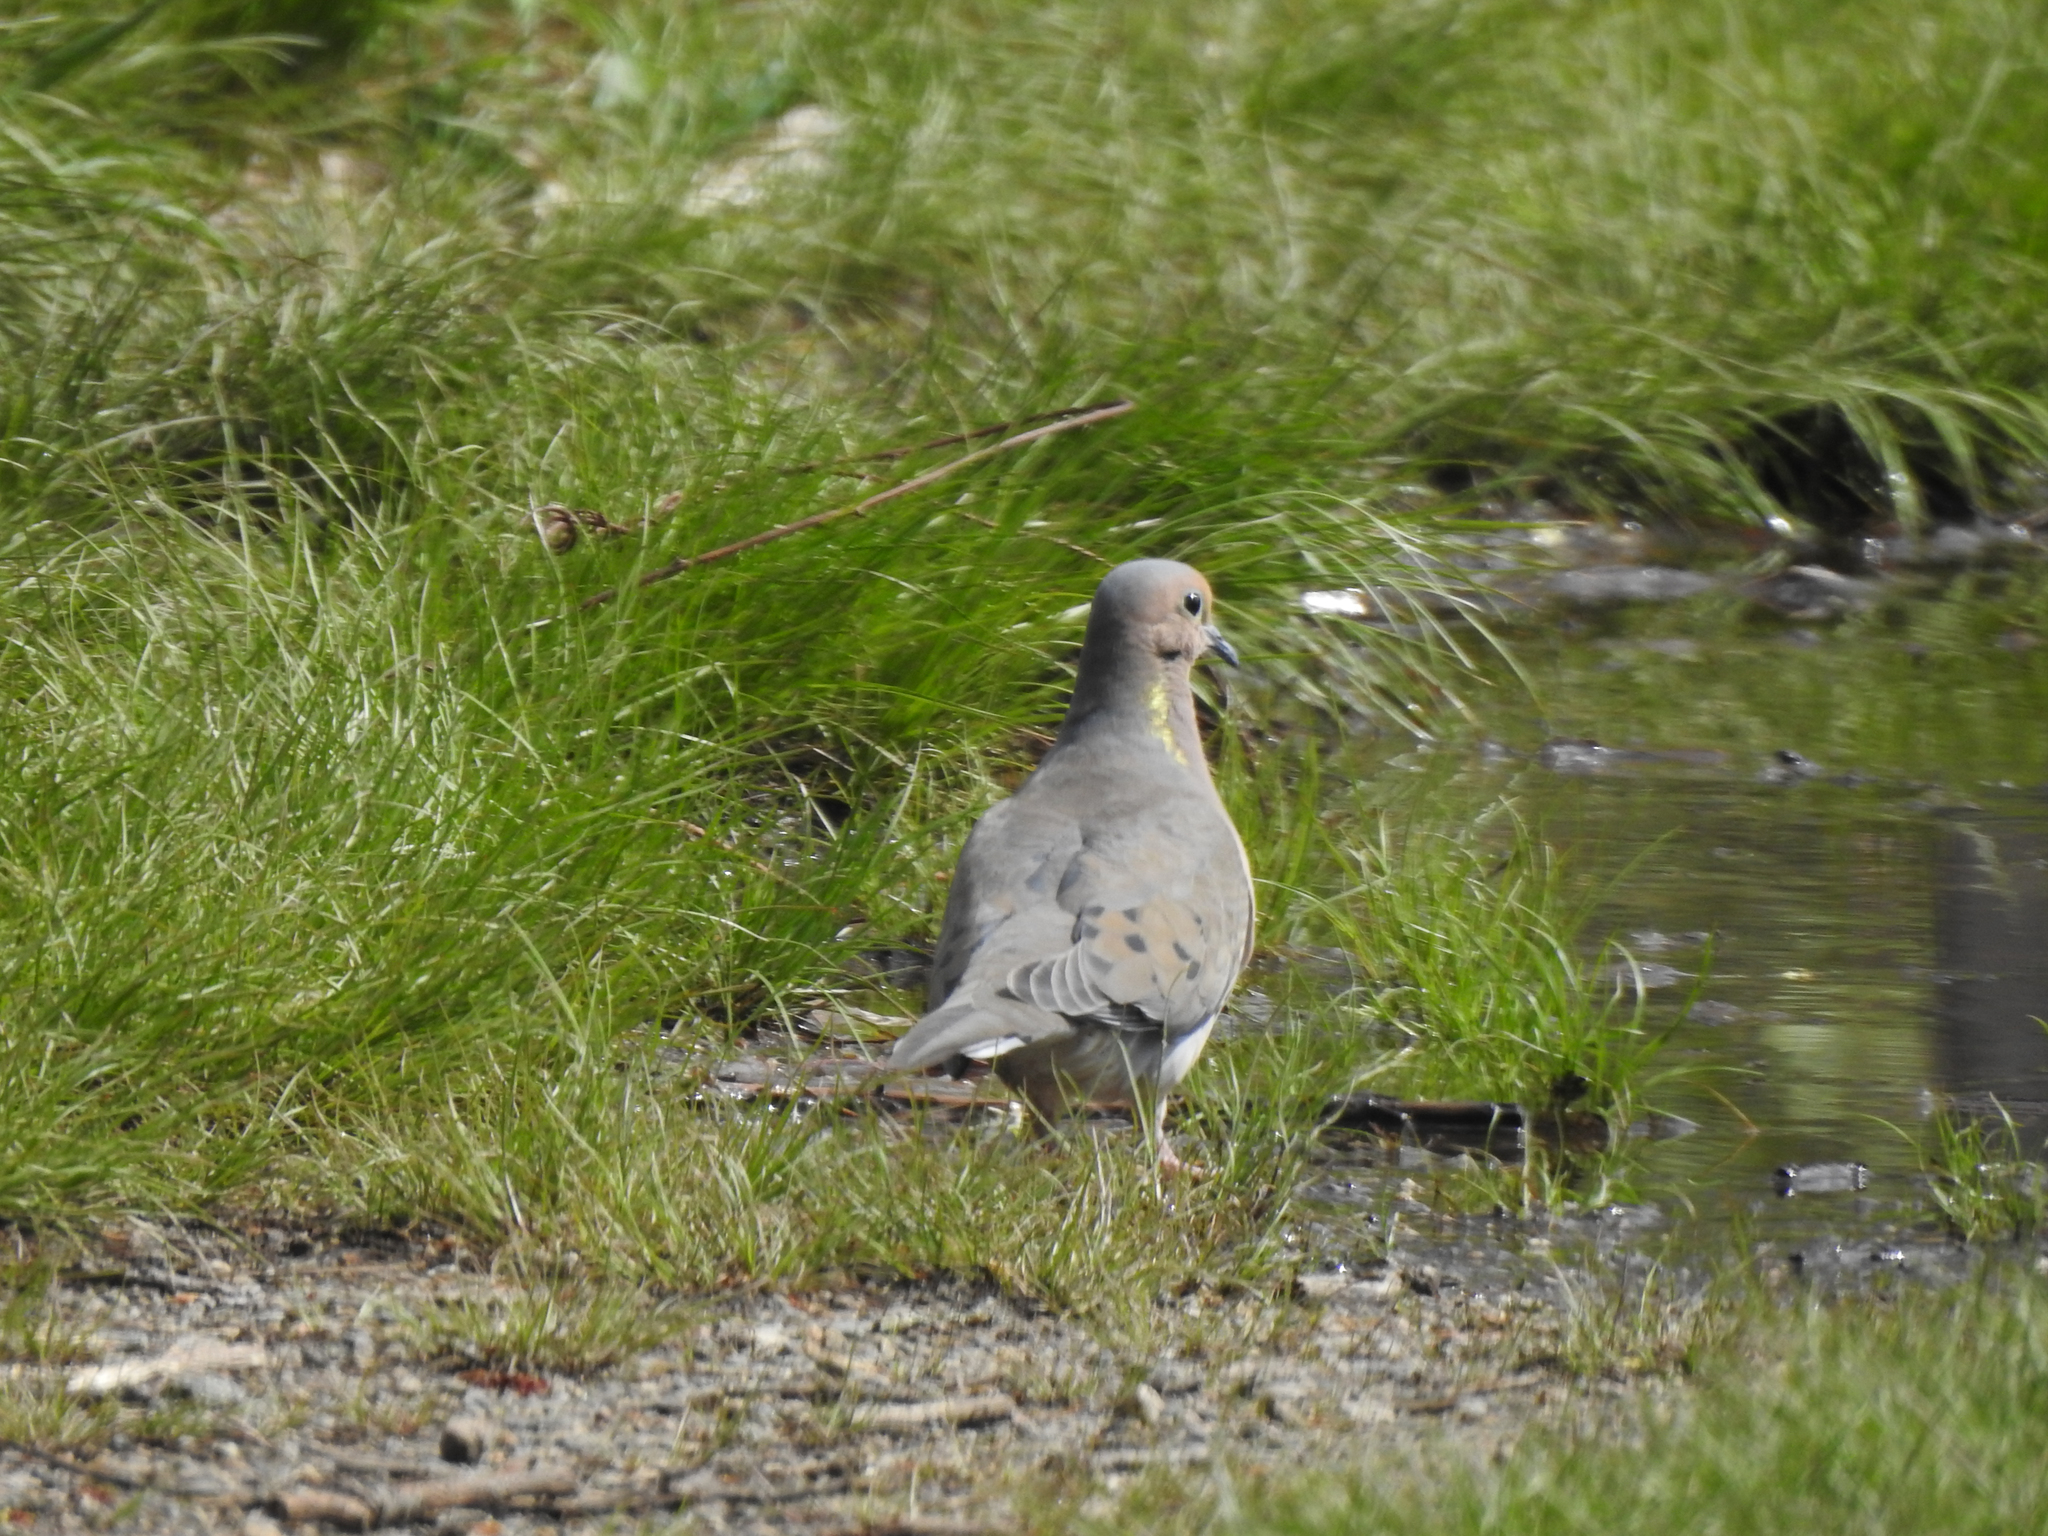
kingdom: Animalia
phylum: Chordata
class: Aves
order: Columbiformes
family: Columbidae
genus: Zenaida
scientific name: Zenaida macroura
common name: Mourning dove
